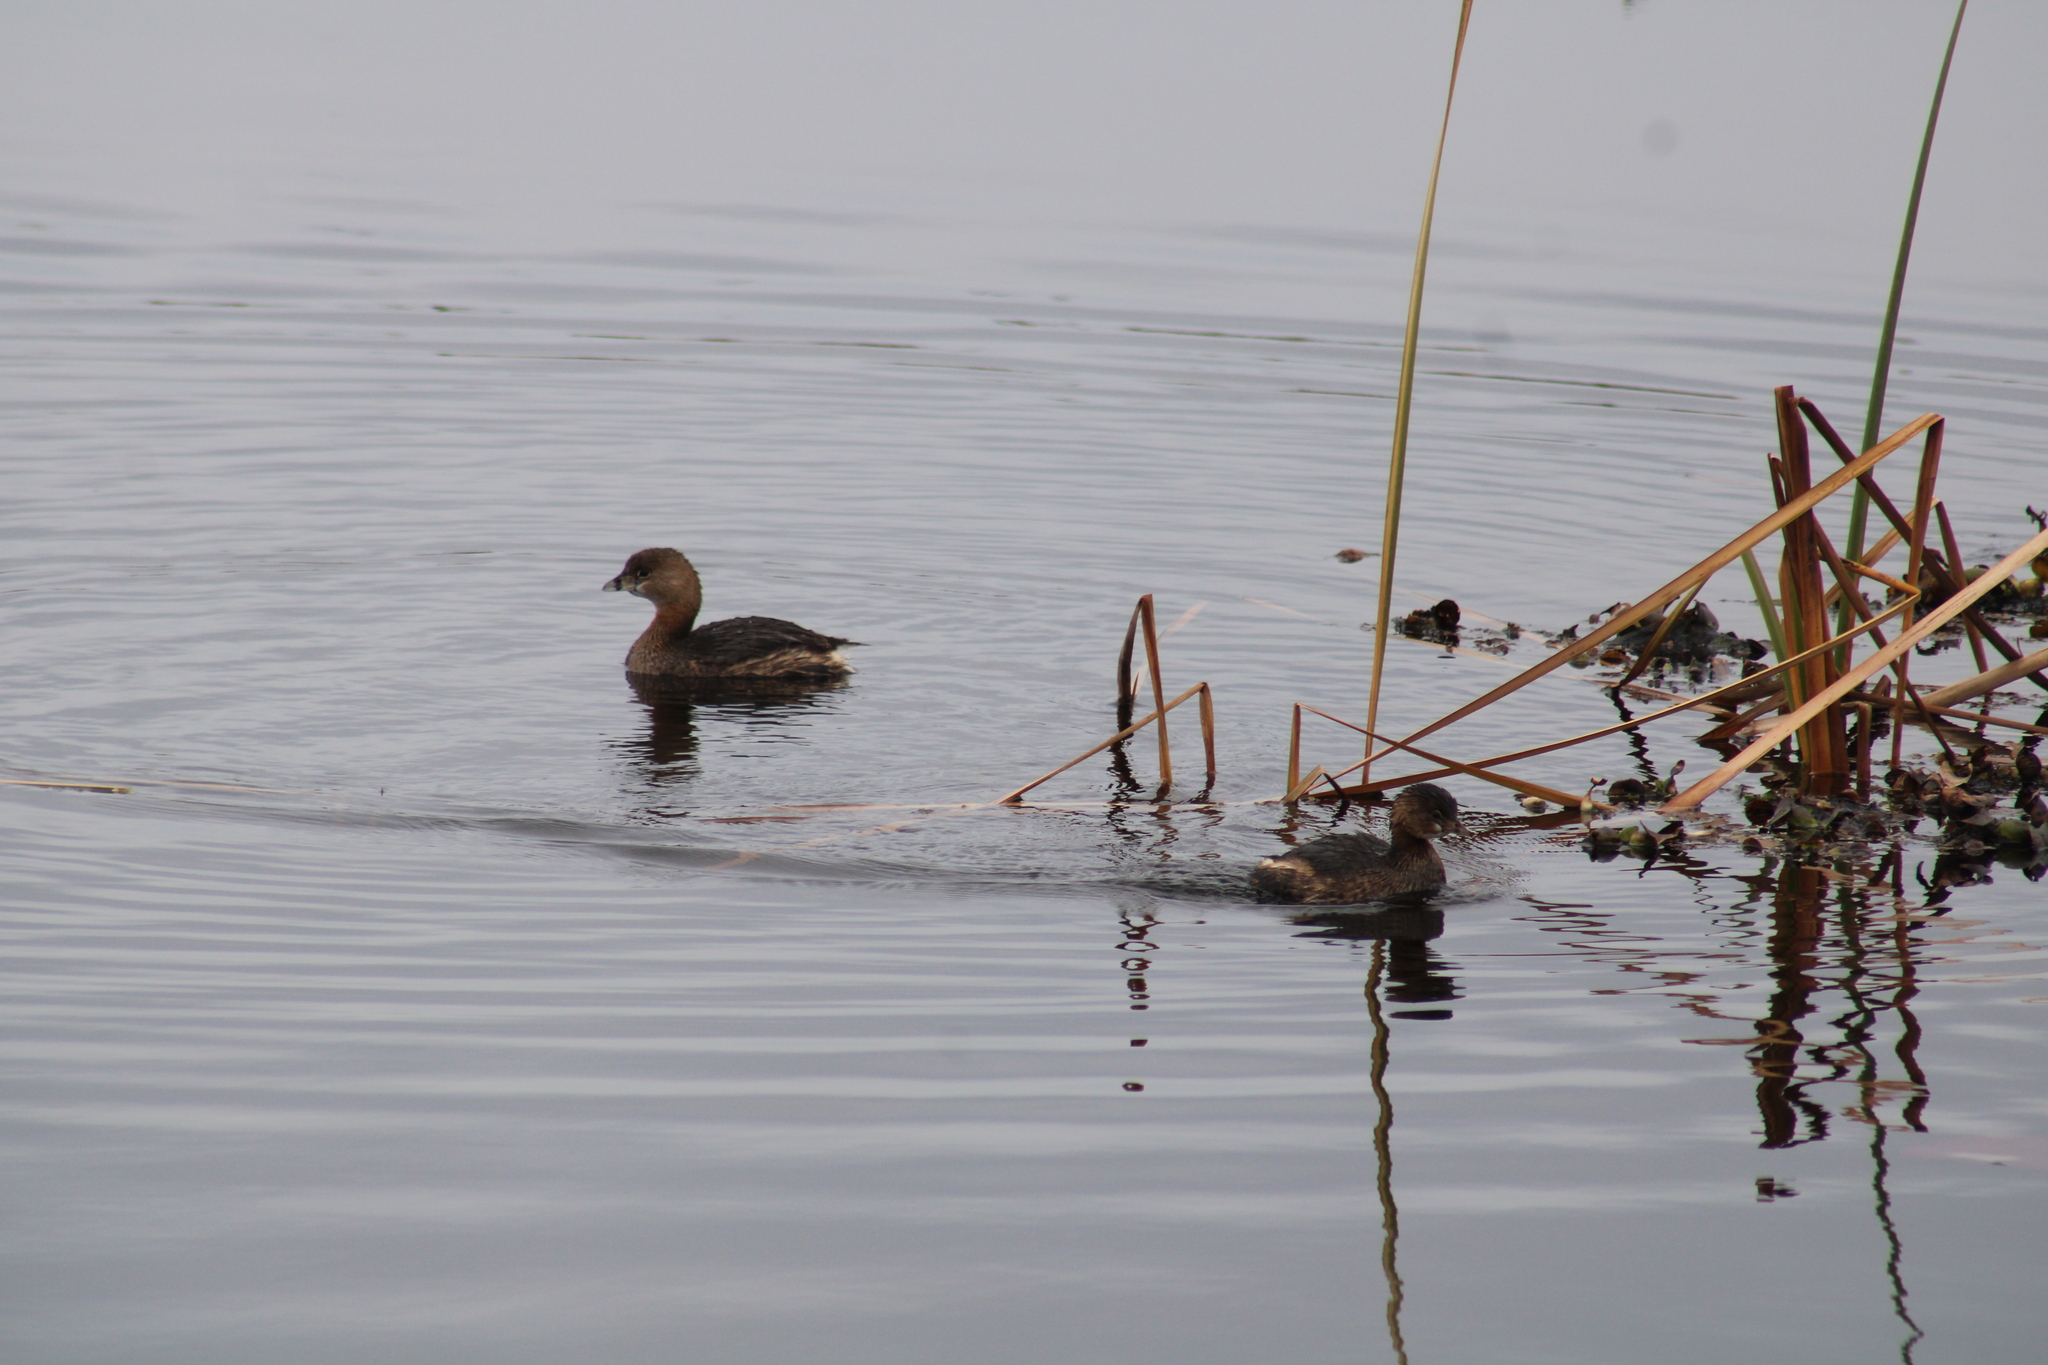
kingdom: Animalia
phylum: Chordata
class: Aves
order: Podicipediformes
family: Podicipedidae
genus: Podilymbus
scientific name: Podilymbus podiceps
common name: Pied-billed grebe
